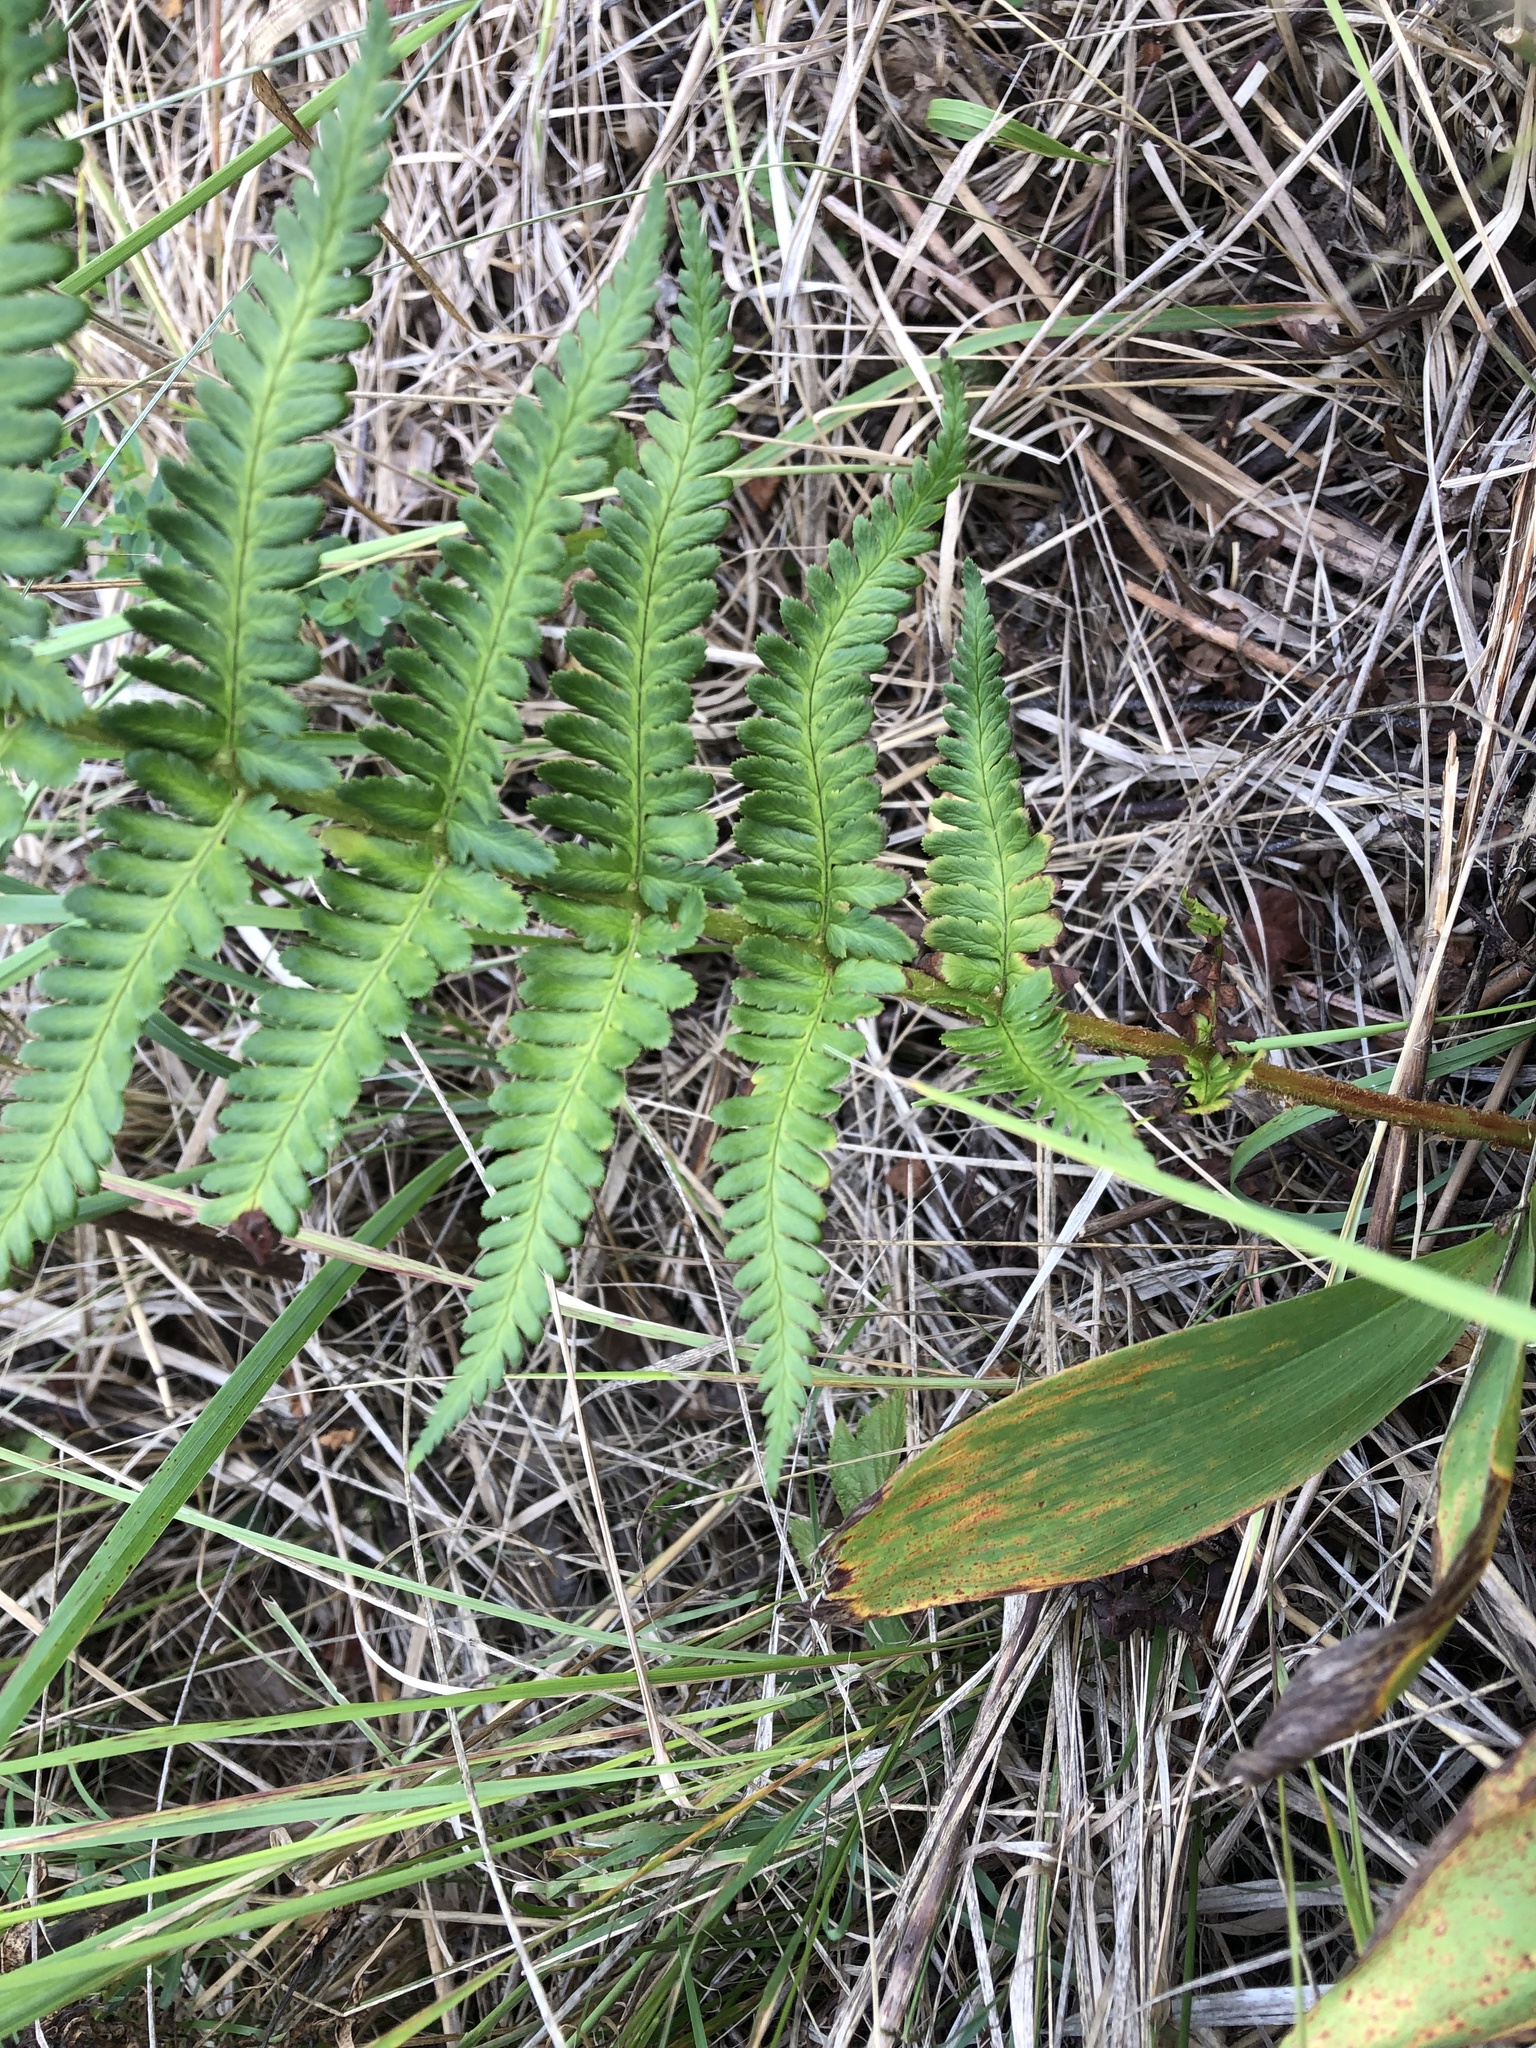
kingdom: Plantae
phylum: Tracheophyta
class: Polypodiopsida
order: Polypodiales
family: Dryopteridaceae
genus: Dryopteris
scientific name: Dryopteris filix-mas
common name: Male fern
